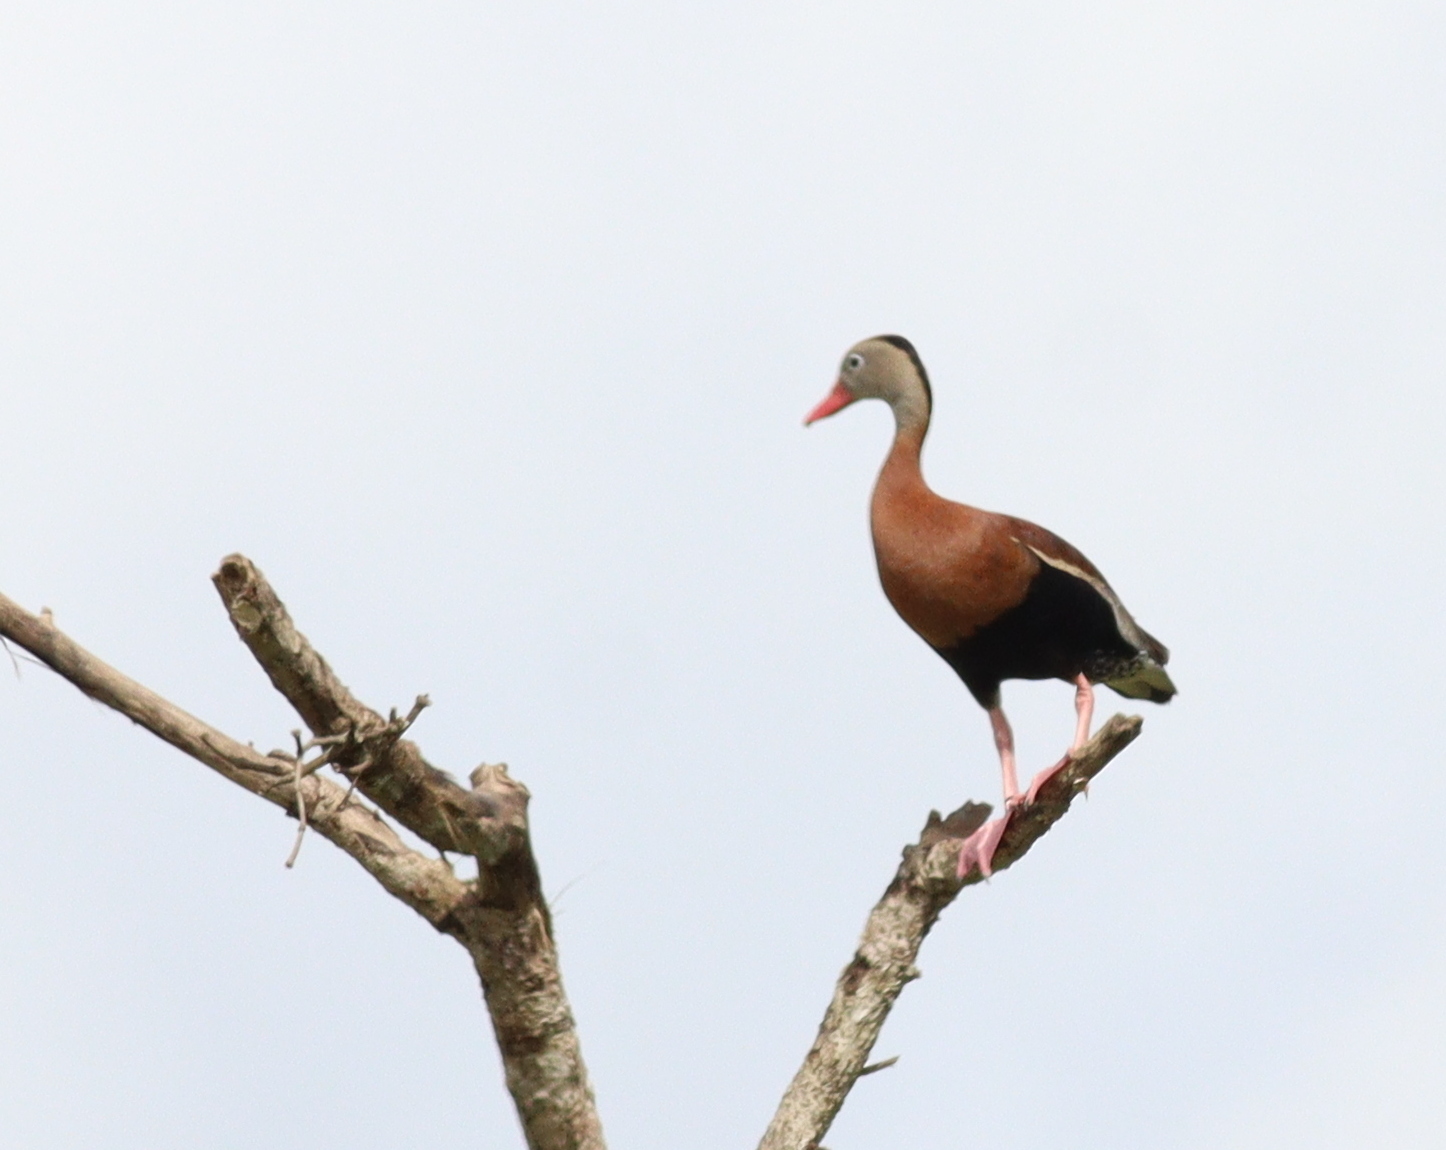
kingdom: Animalia
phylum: Chordata
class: Aves
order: Anseriformes
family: Anatidae
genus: Dendrocygna
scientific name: Dendrocygna autumnalis
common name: Black-bellied whistling duck
